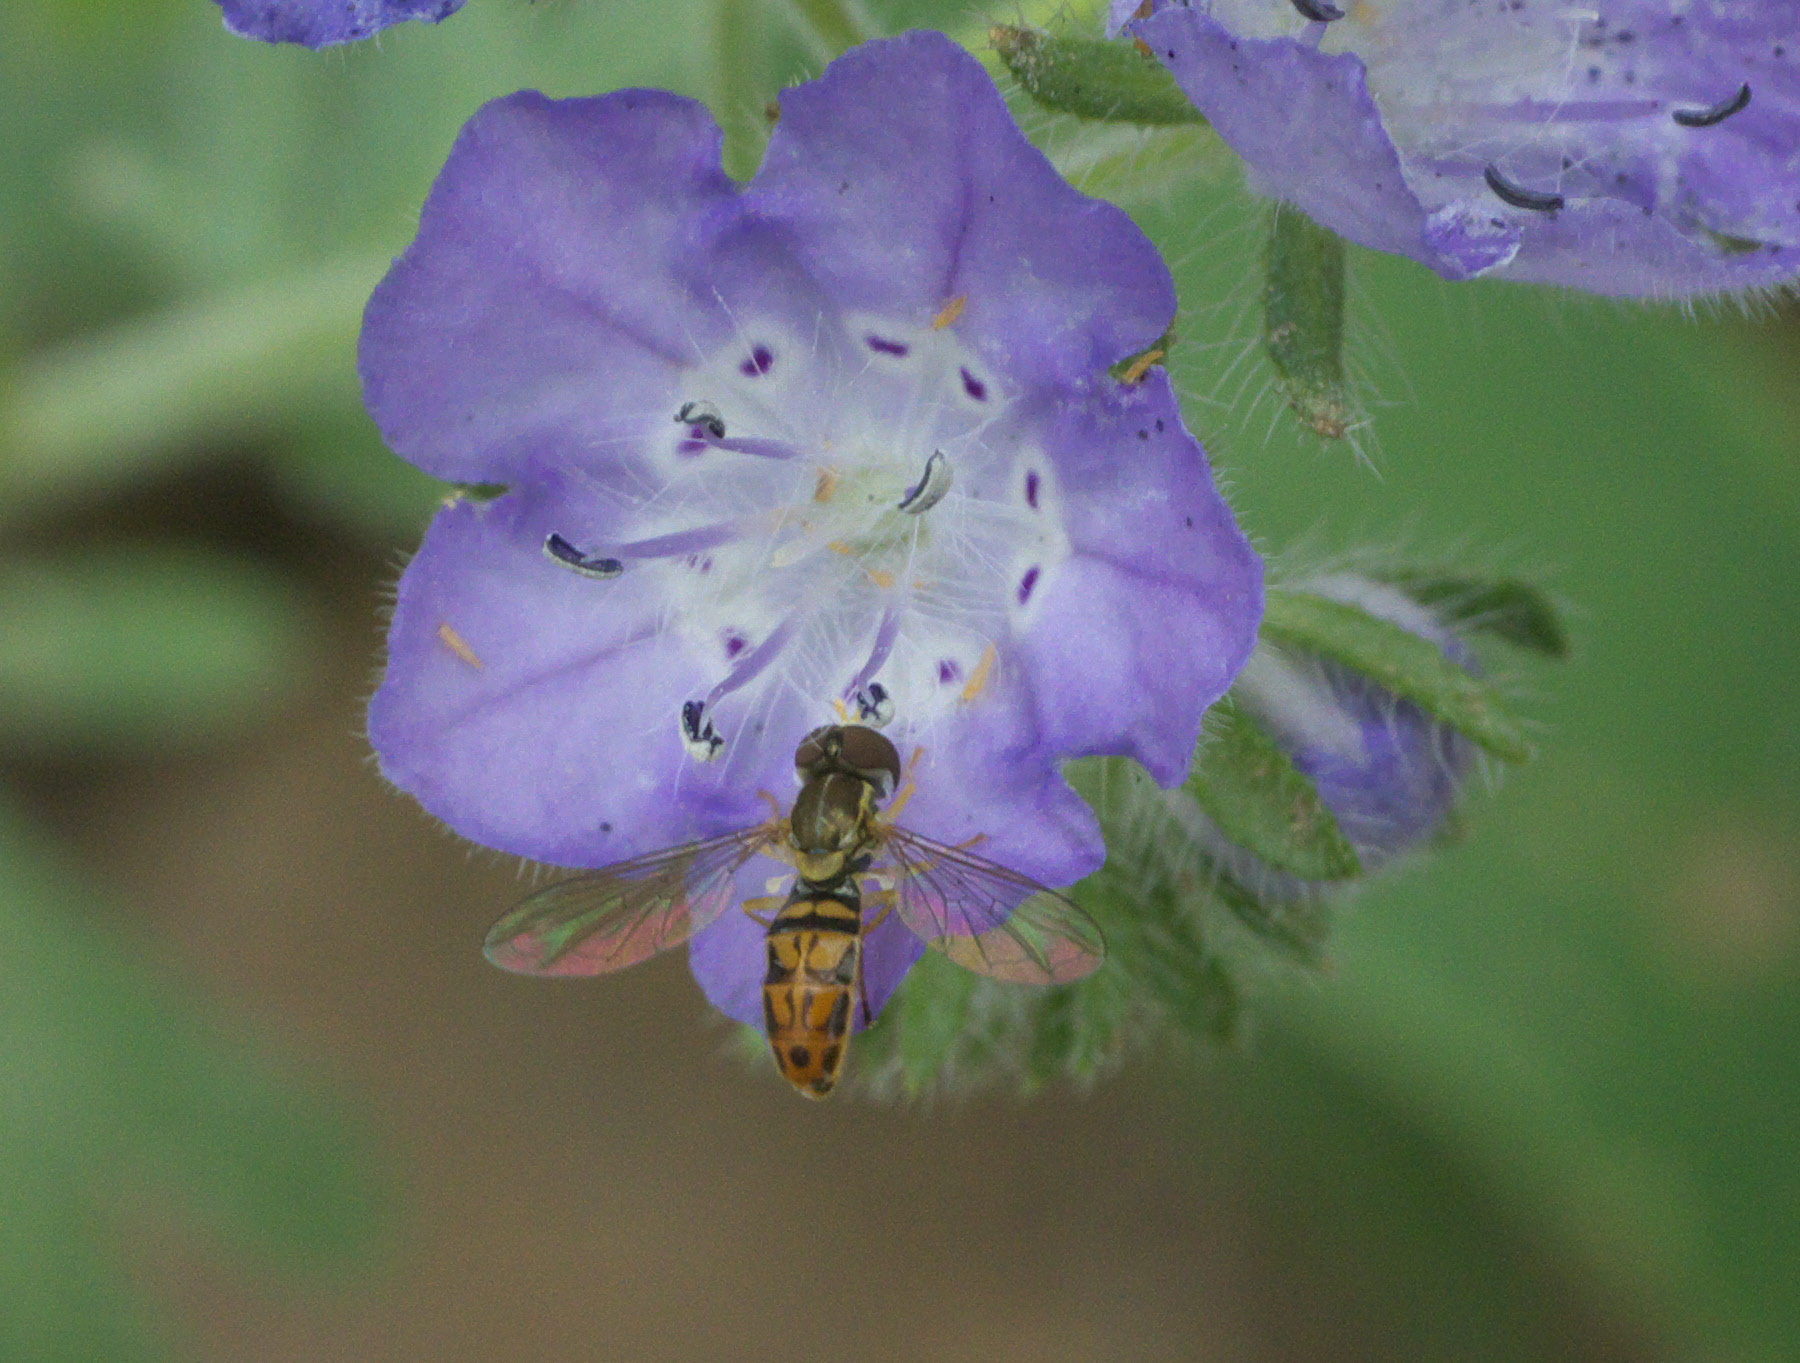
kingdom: Animalia
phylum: Arthropoda
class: Insecta
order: Diptera
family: Syrphidae
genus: Toxomerus
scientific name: Toxomerus marginatus
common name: Syrphid fly
